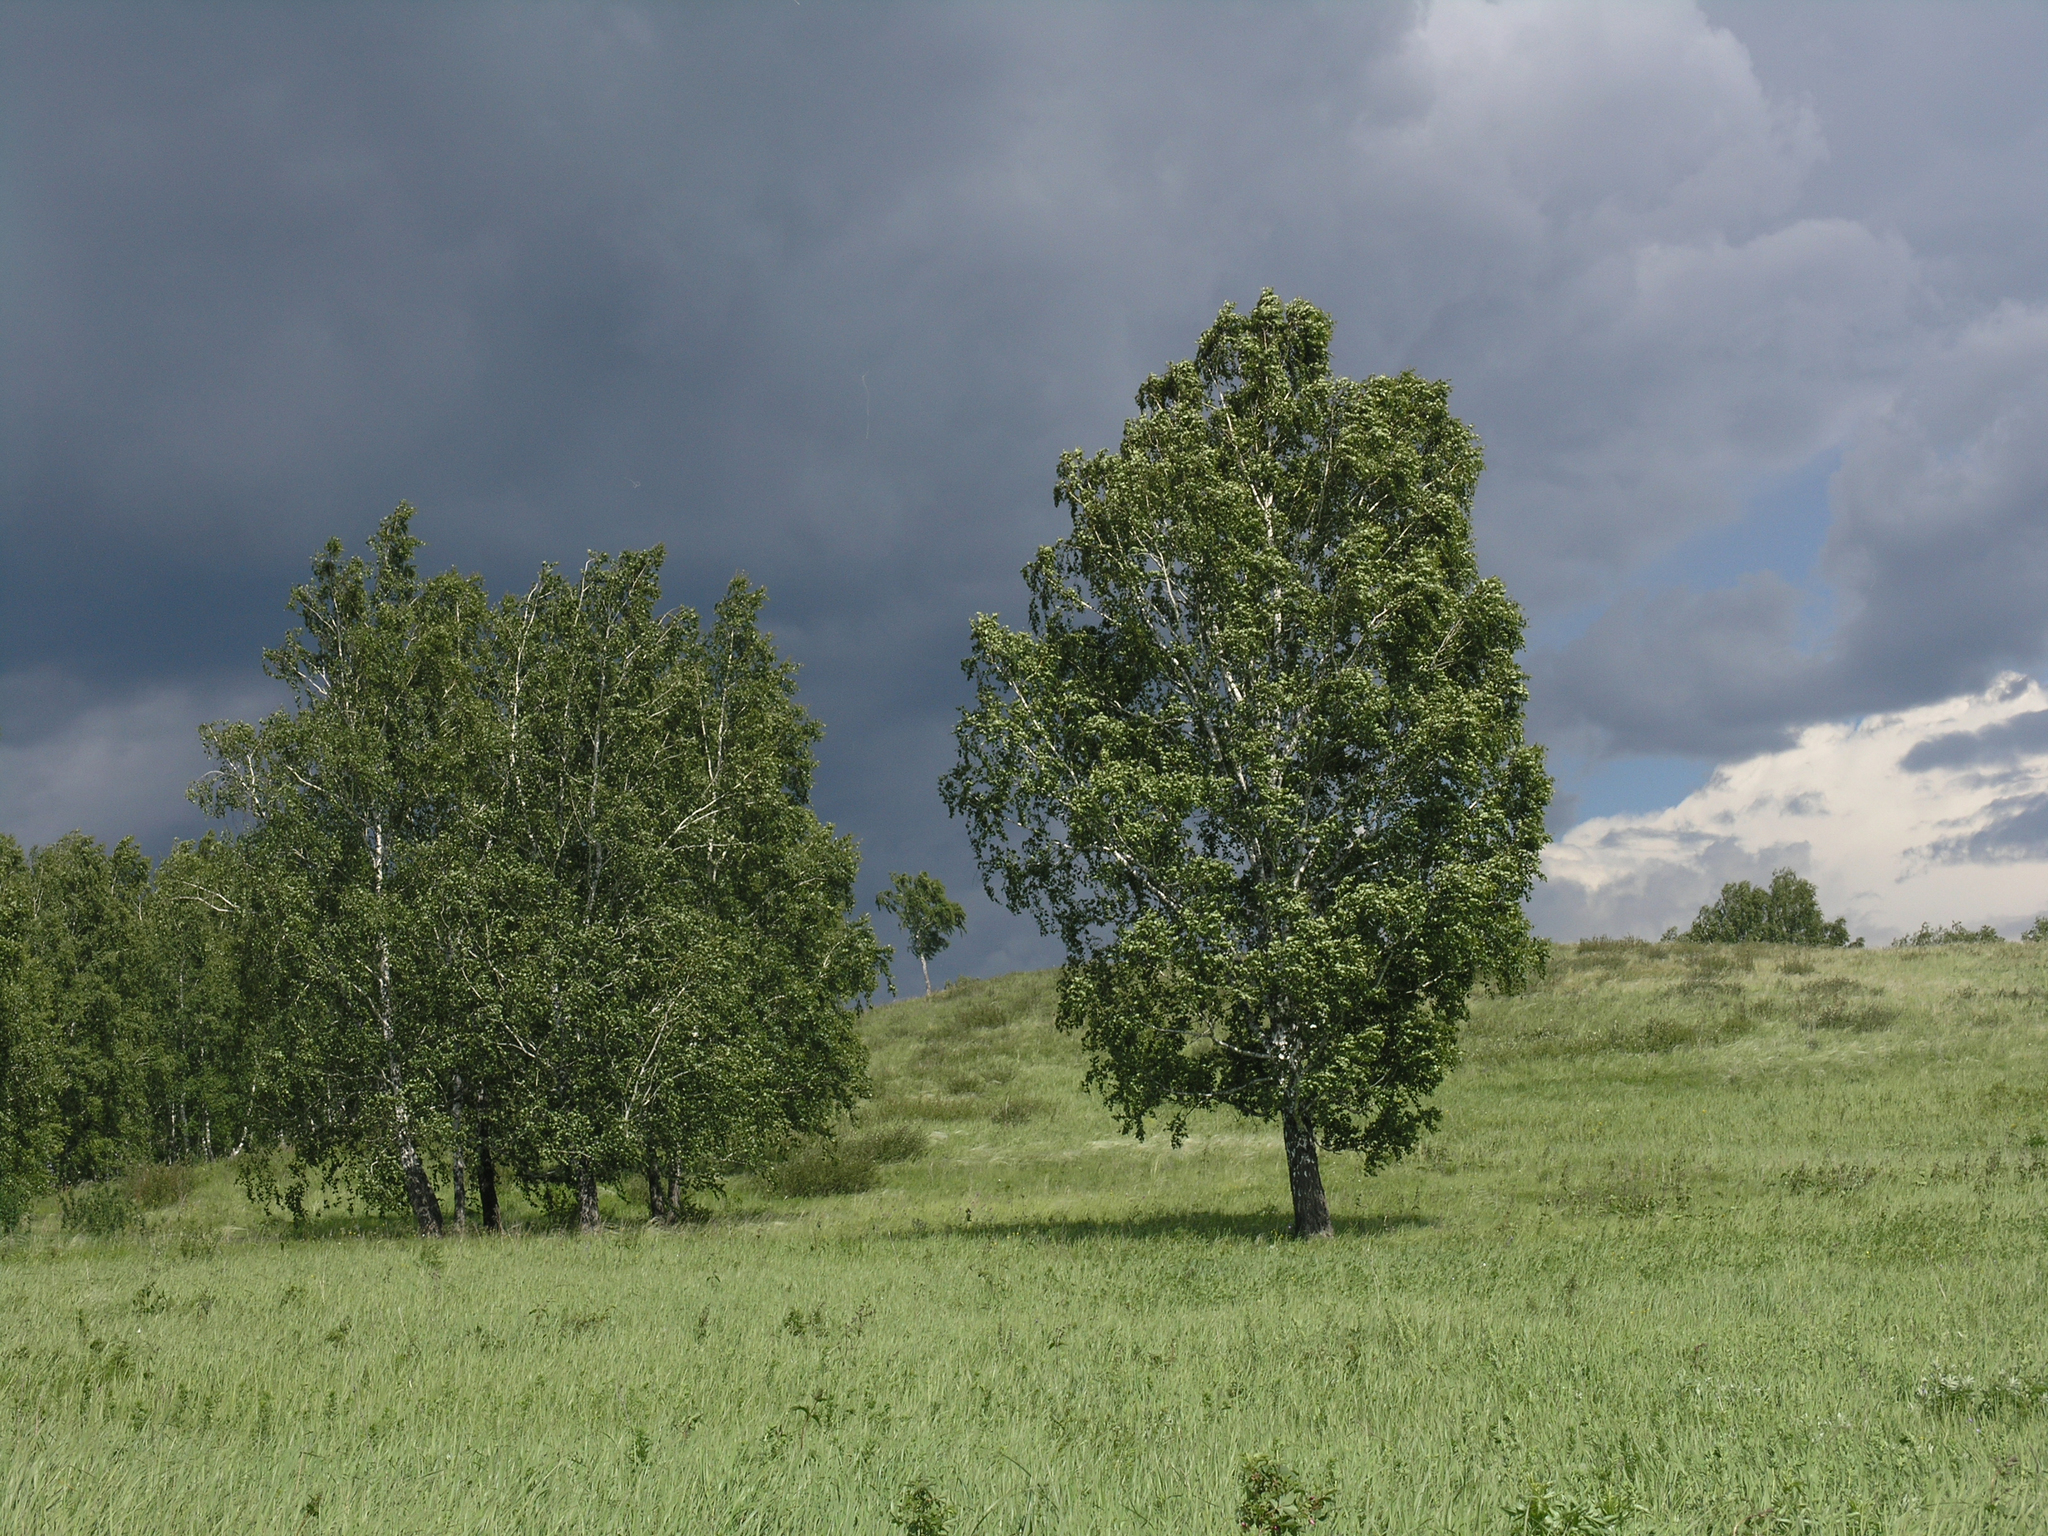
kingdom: Plantae
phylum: Tracheophyta
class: Magnoliopsida
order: Fagales
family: Betulaceae
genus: Betula
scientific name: Betula pendula
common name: Silver birch
